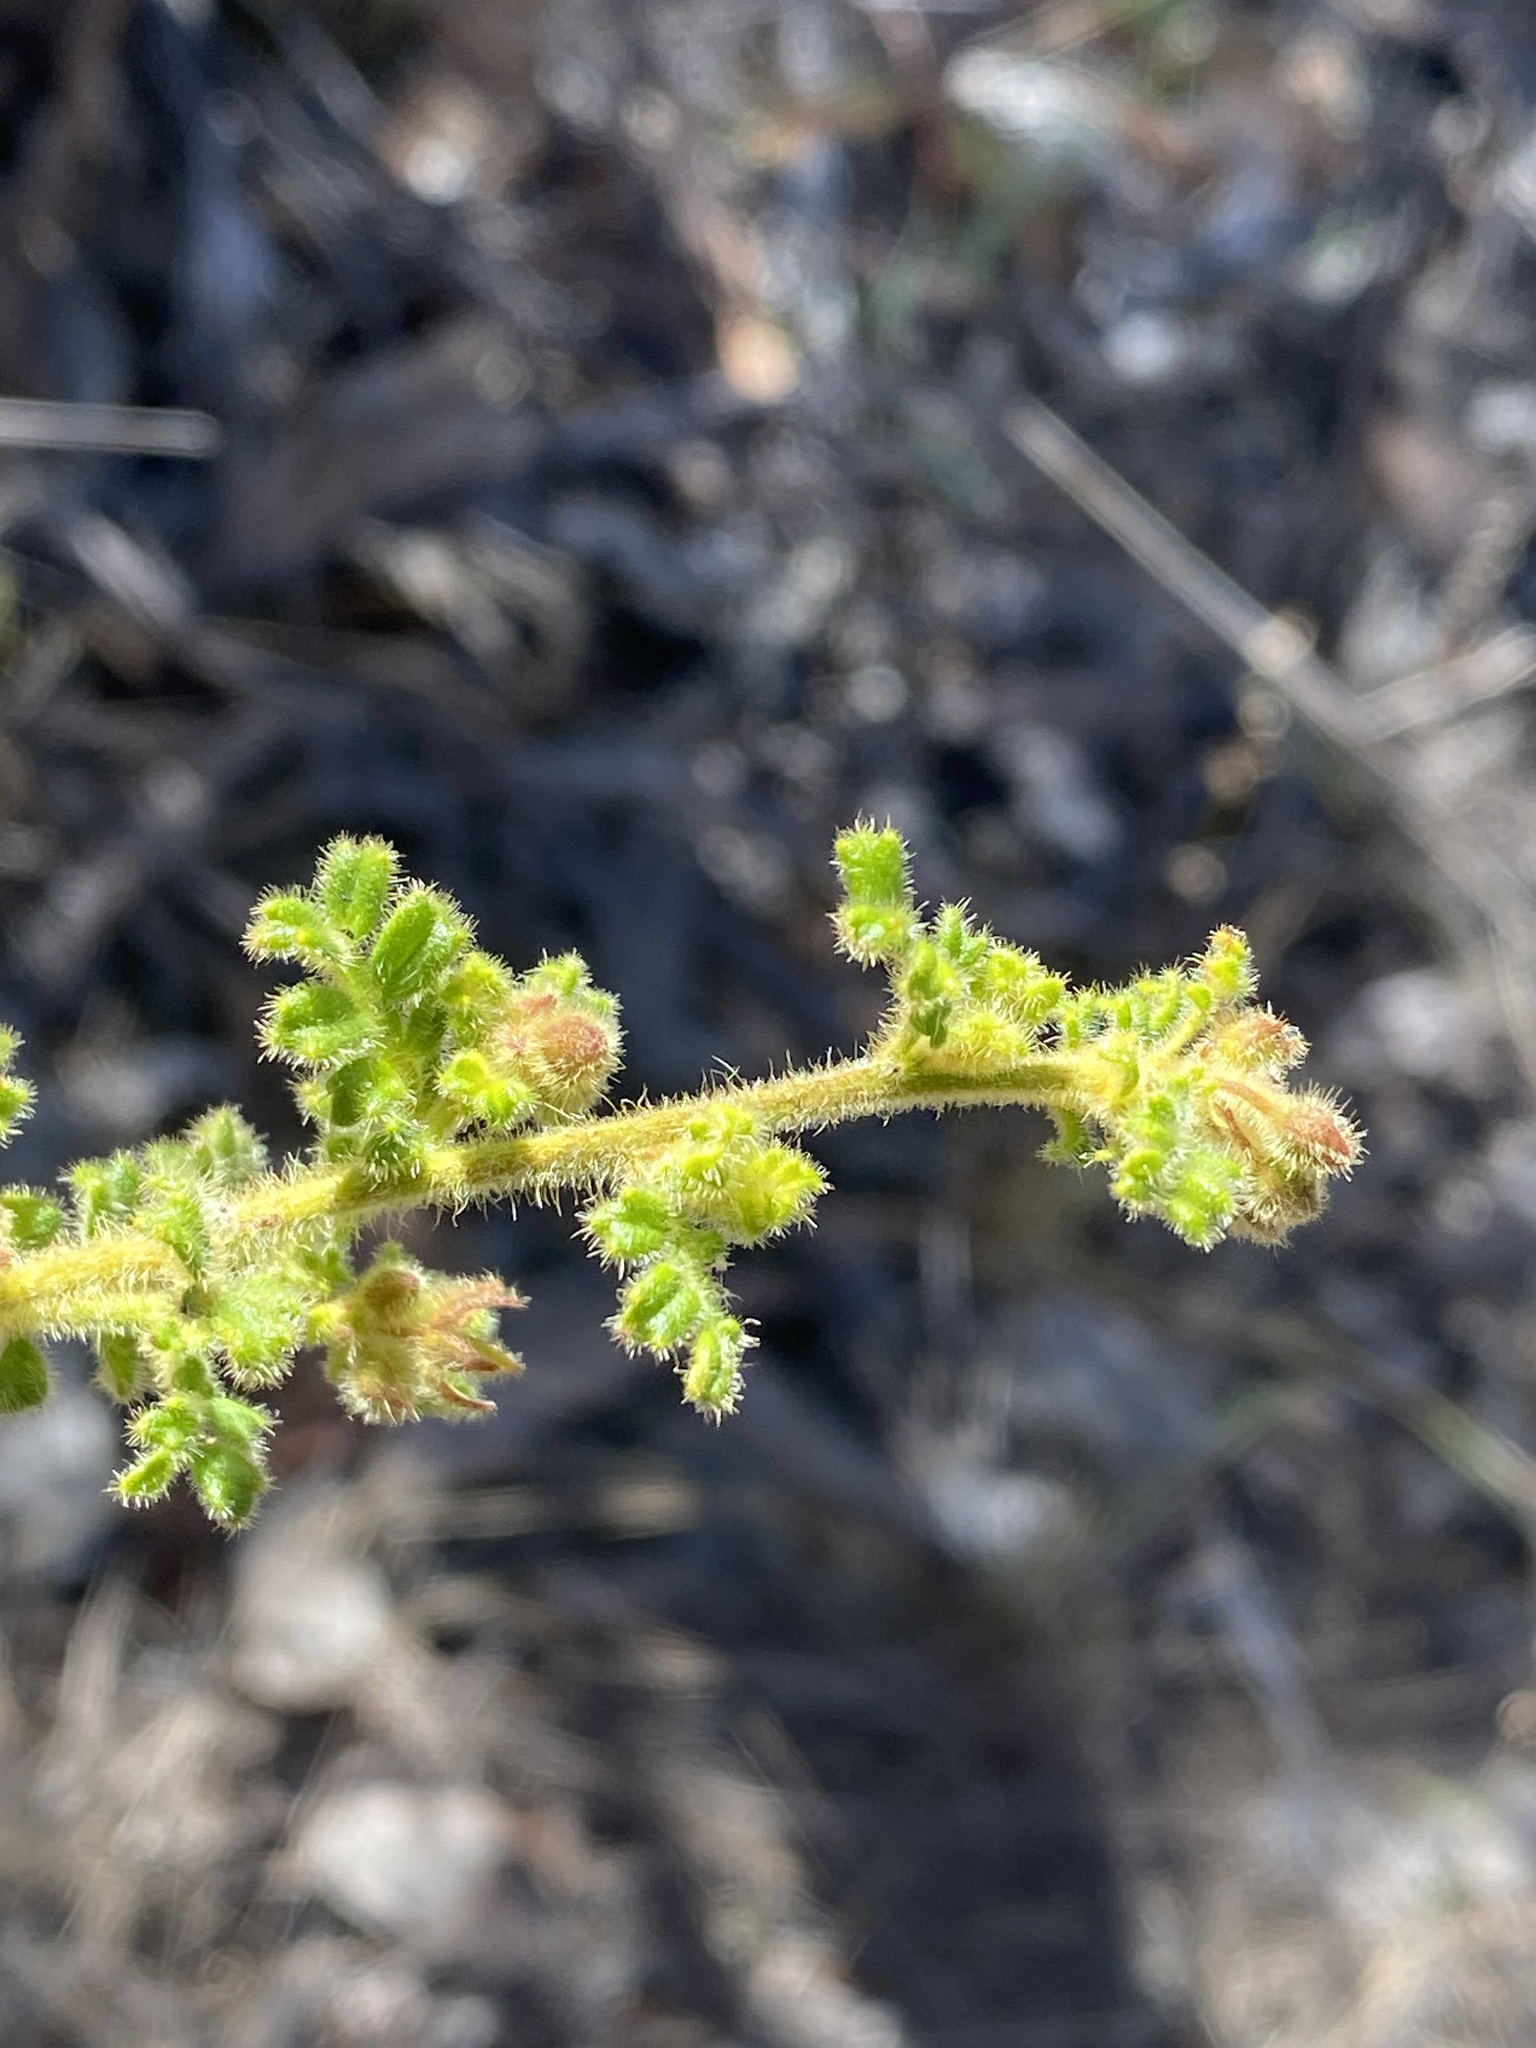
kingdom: Plantae
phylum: Tracheophyta
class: Magnoliopsida
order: Sapindales
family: Sapindaceae
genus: Dodonaea
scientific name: Dodonaea vestita
